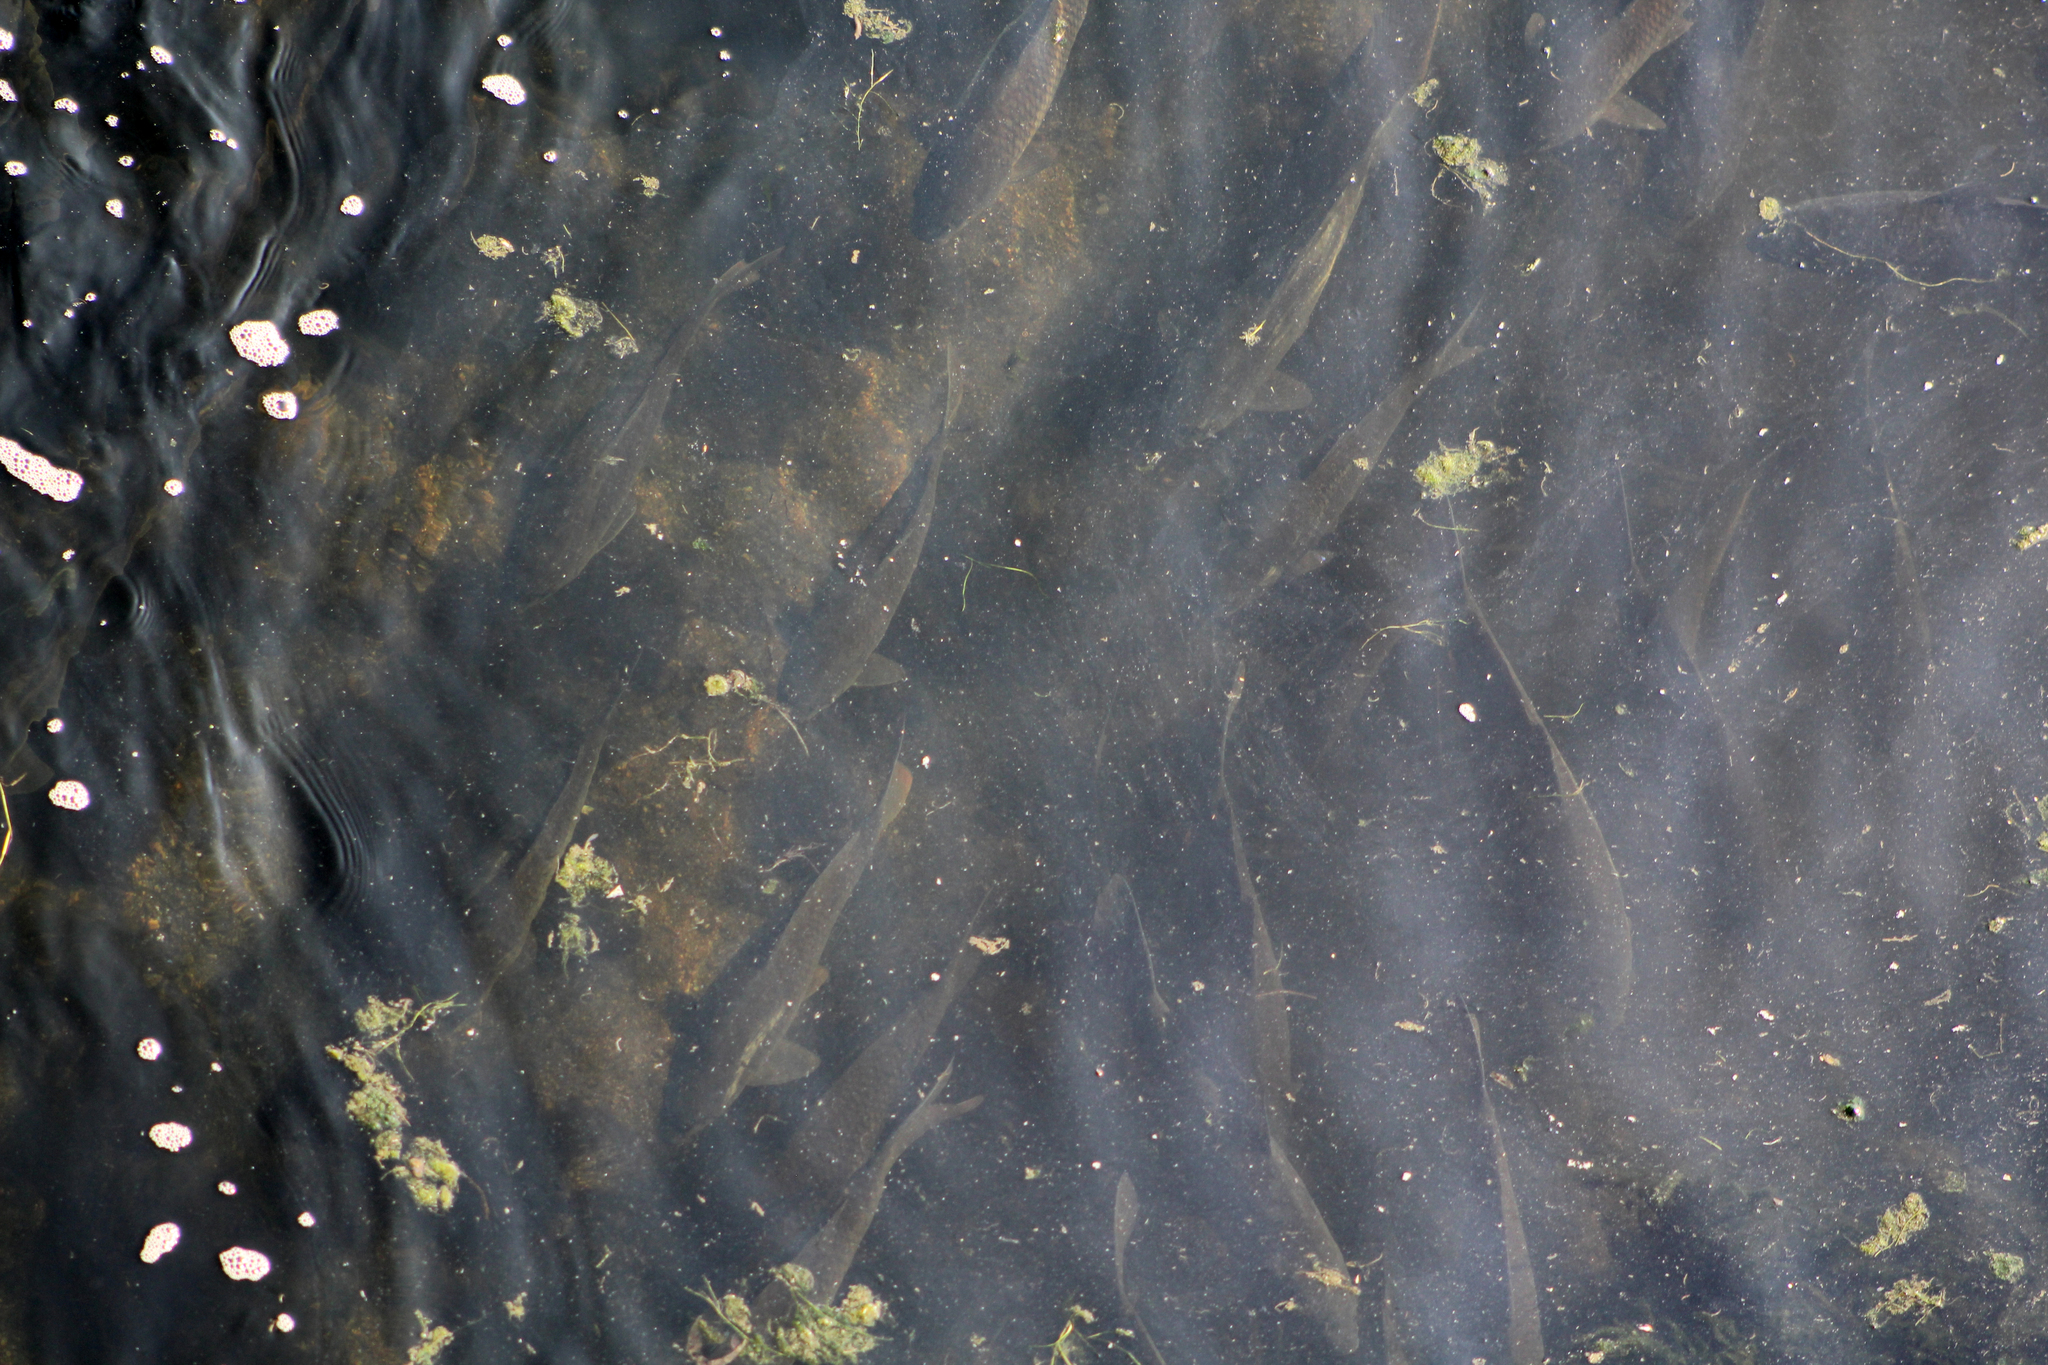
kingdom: Animalia
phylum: Chordata
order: Cypriniformes
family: Cyprinidae
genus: Cyprinus
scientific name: Cyprinus rubrofuscus
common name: Koi
